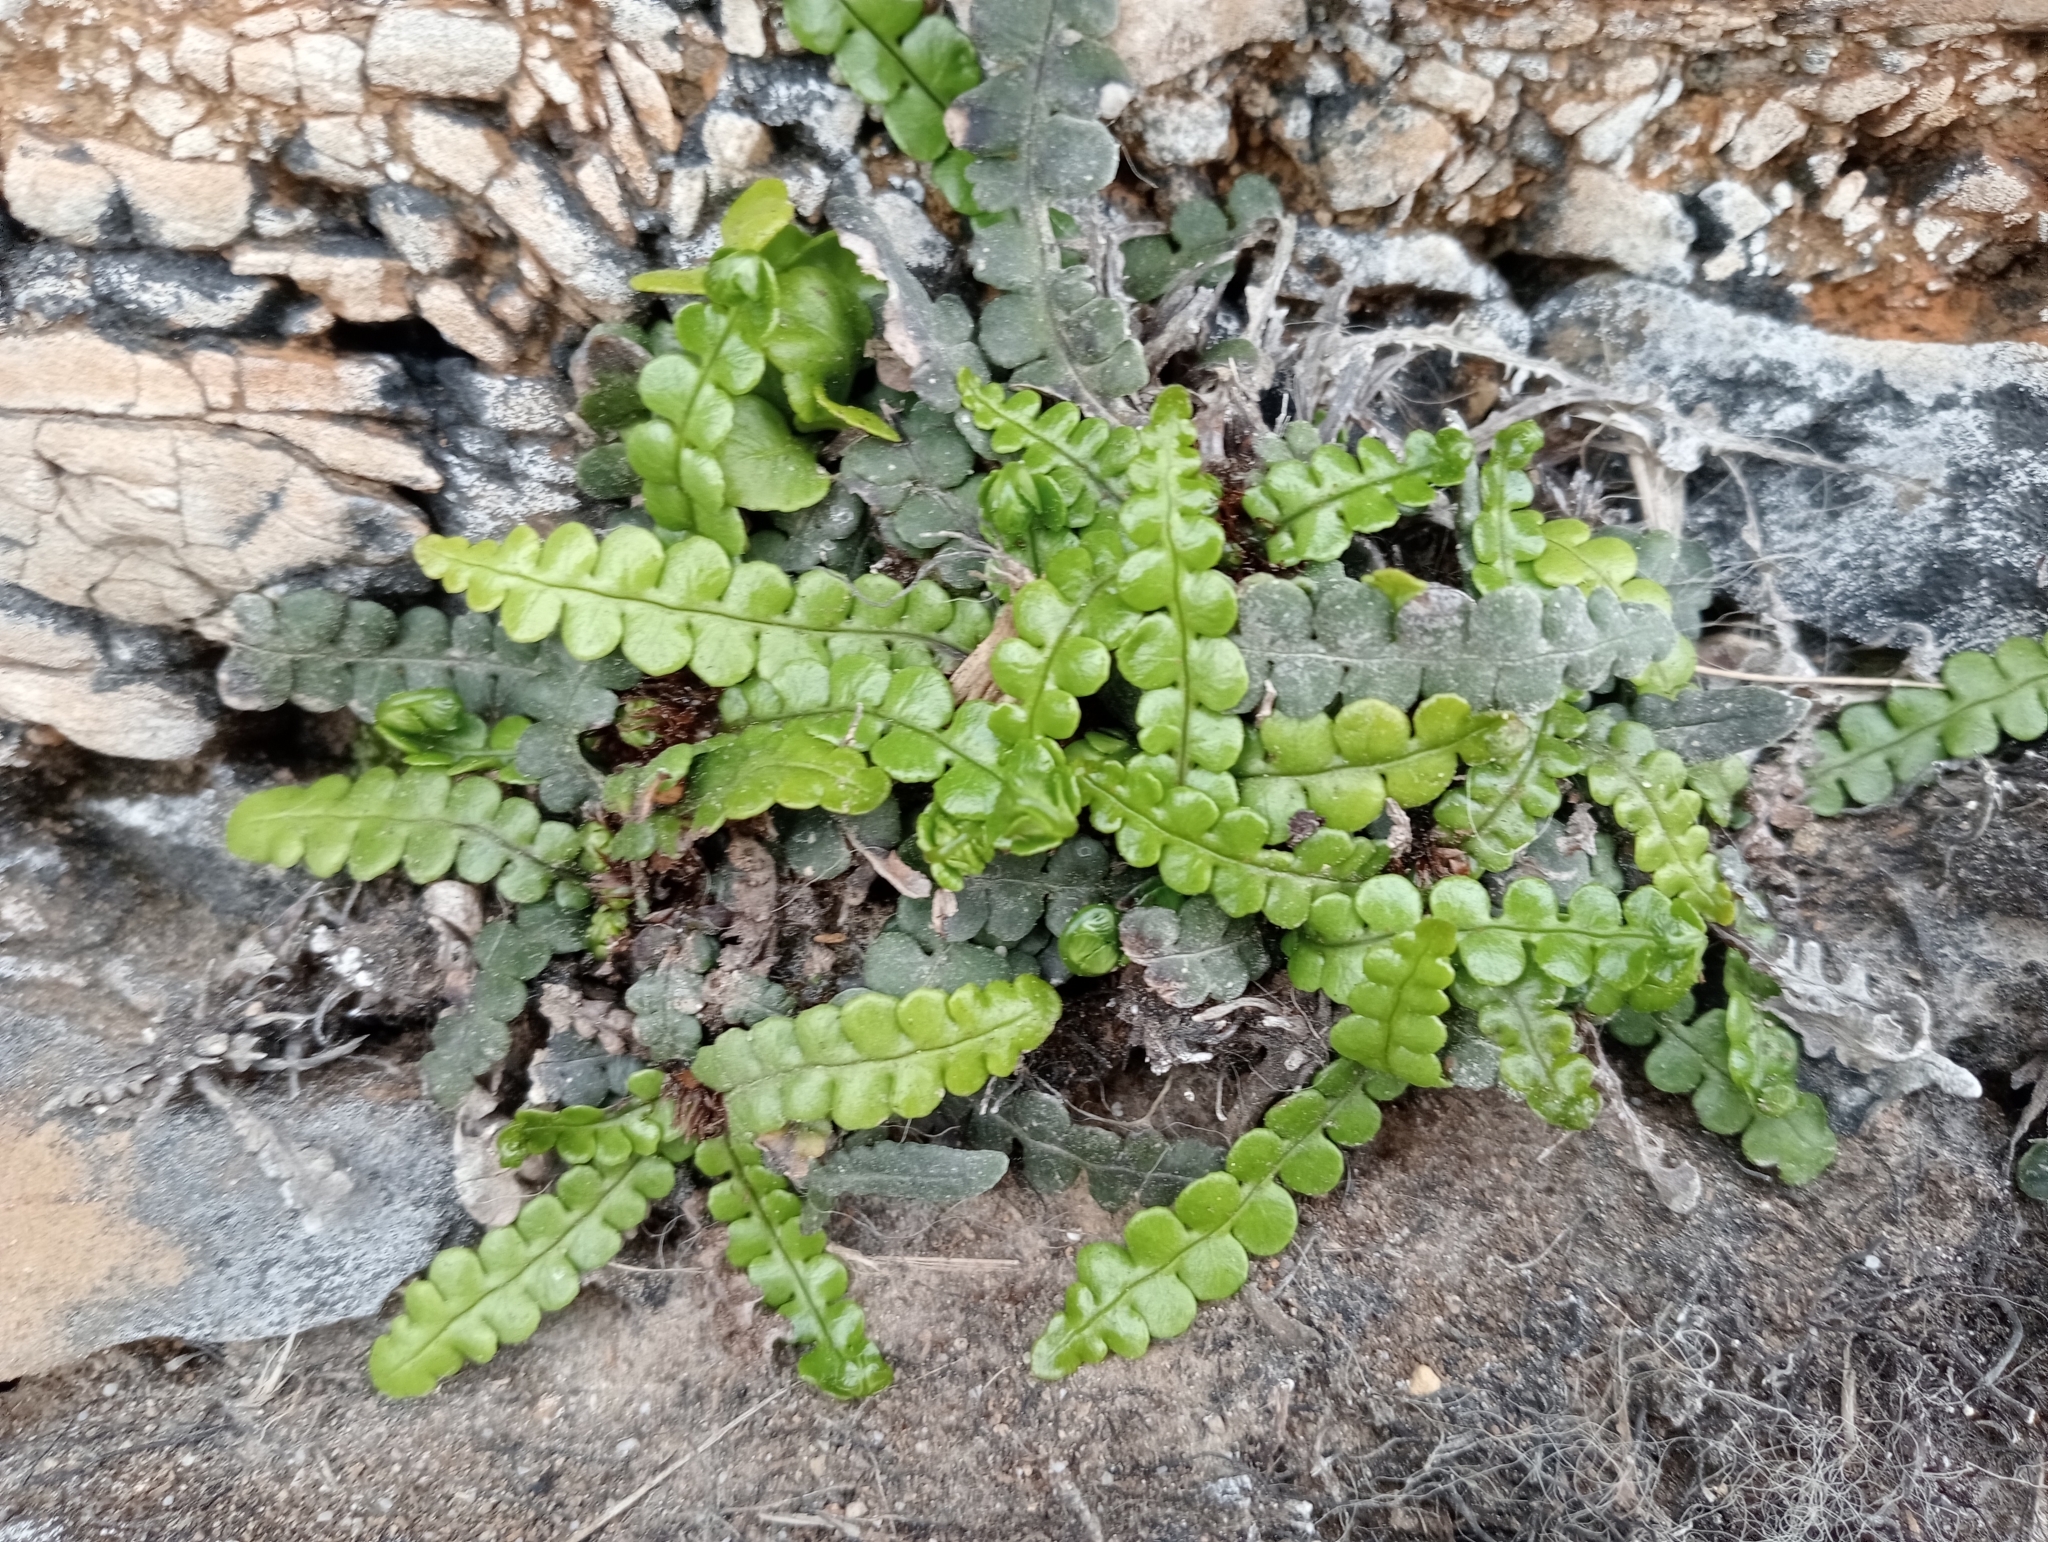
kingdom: Plantae
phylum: Tracheophyta
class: Polypodiopsida
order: Polypodiales
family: Blechnaceae
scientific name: Blechnaceae
